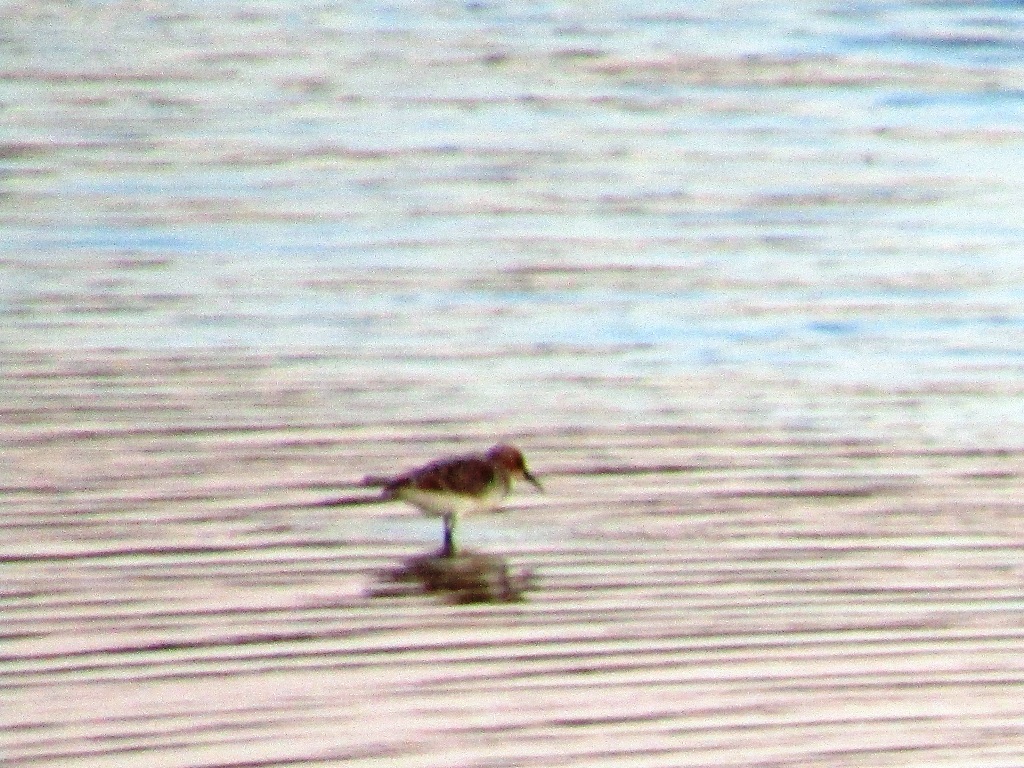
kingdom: Animalia
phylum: Chordata
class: Aves
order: Charadriiformes
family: Scolopacidae
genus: Calidris
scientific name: Calidris minuta
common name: Little stint
